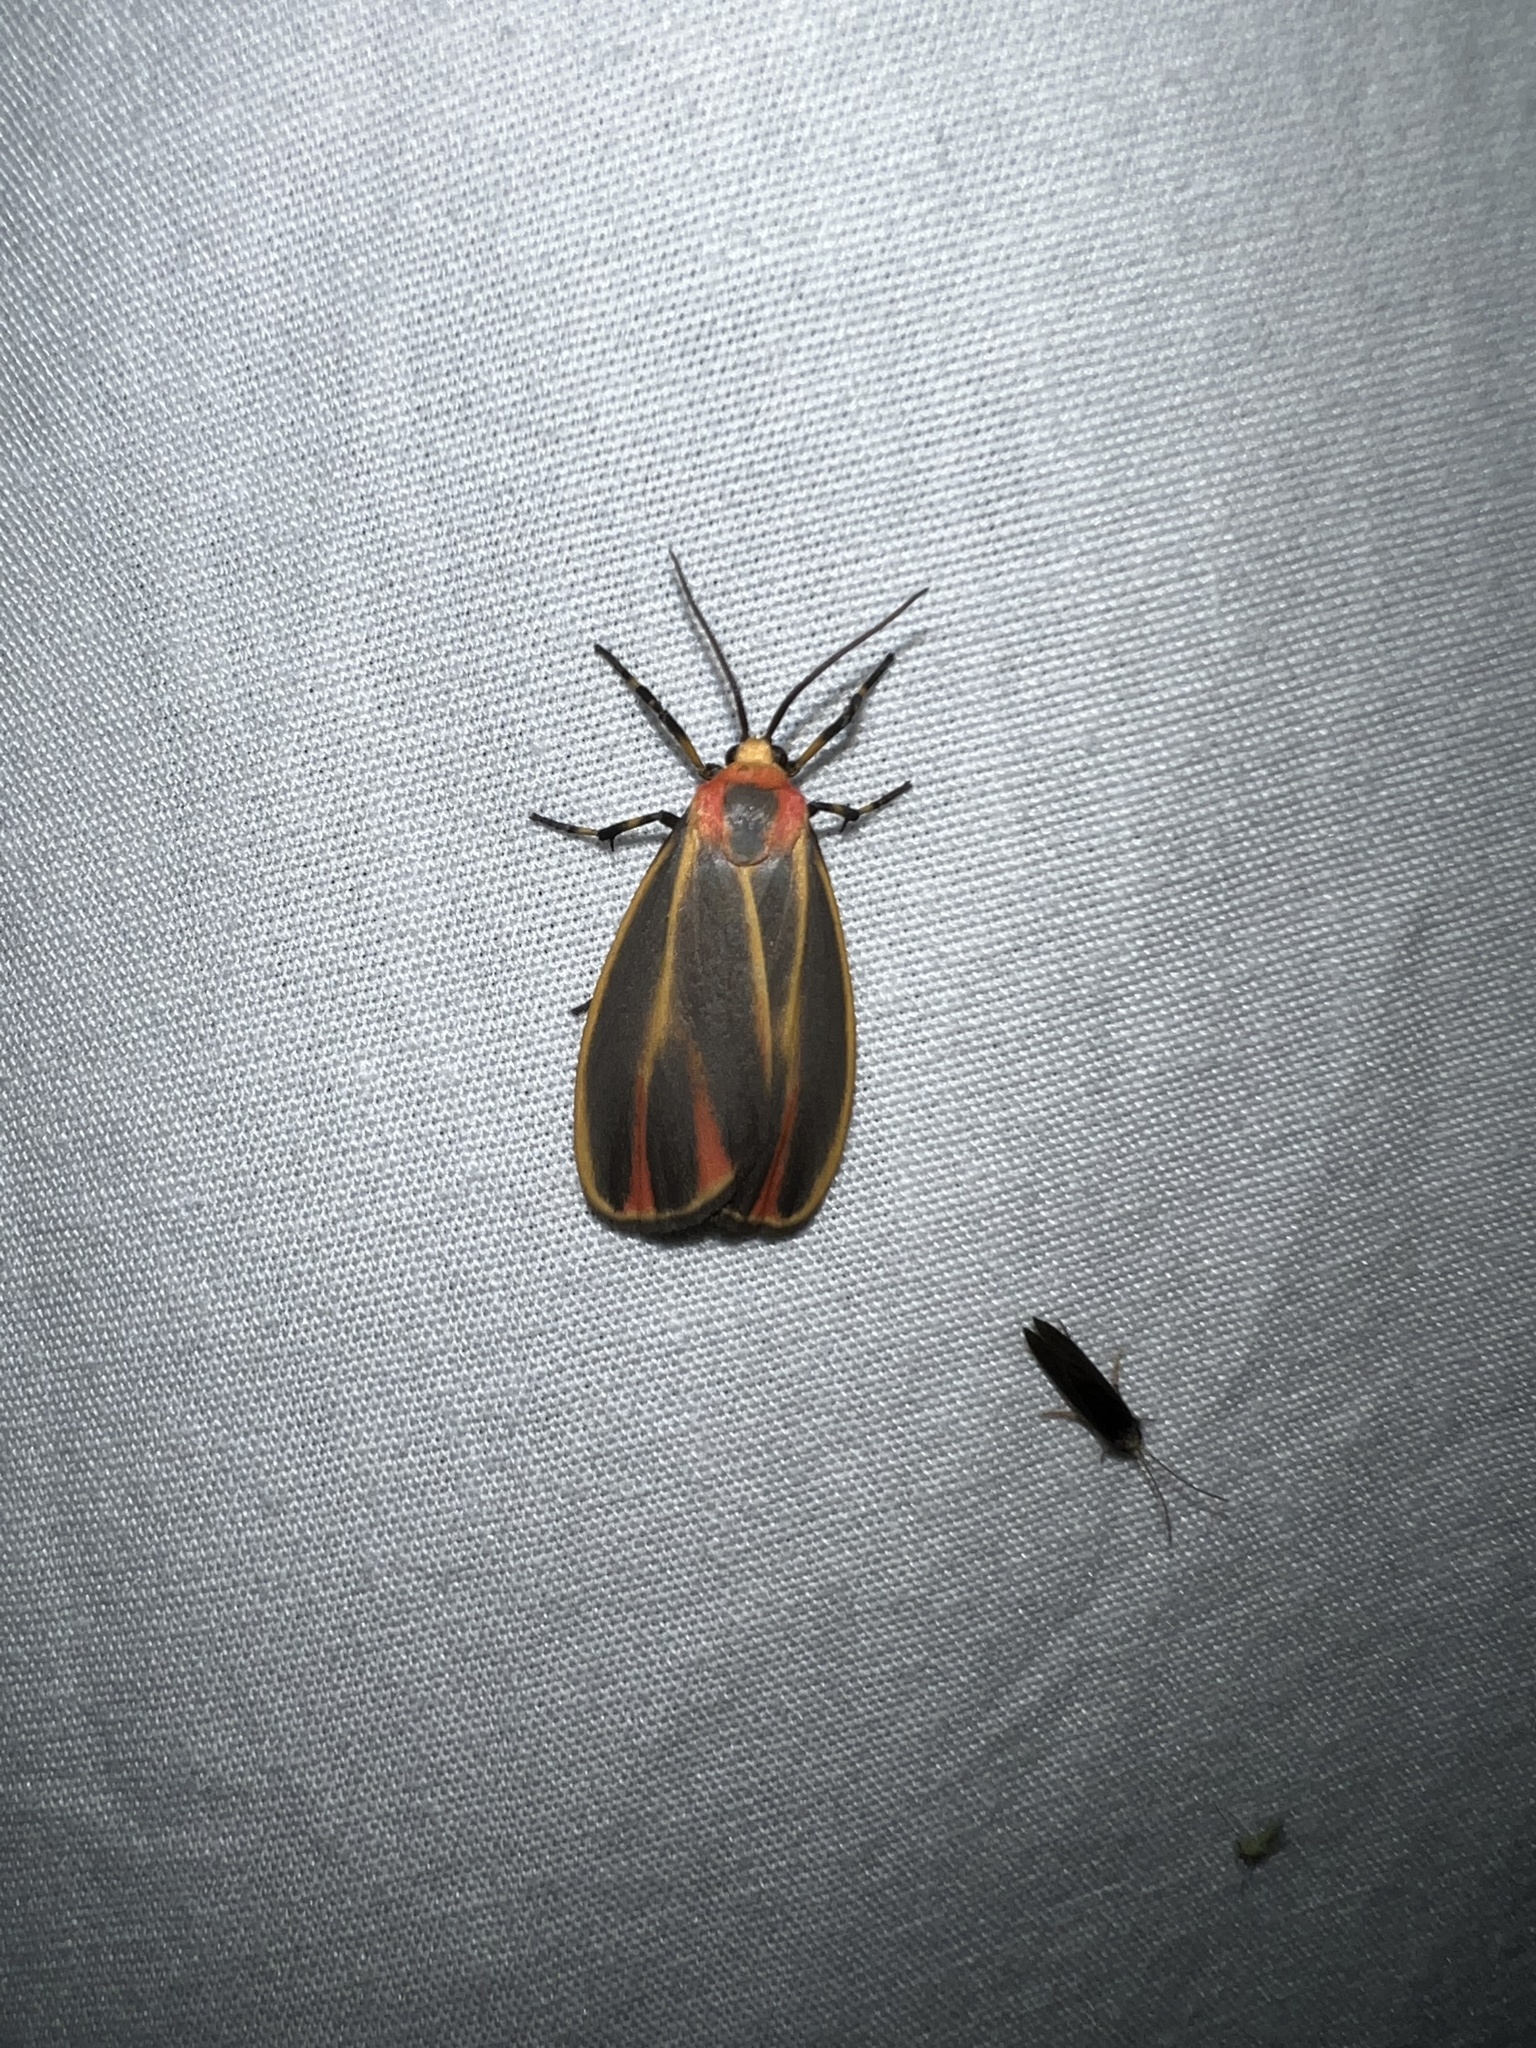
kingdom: Animalia
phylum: Arthropoda
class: Insecta
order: Lepidoptera
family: Erebidae
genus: Hypoprepia
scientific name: Hypoprepia fucosa
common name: Painted lichen moth
